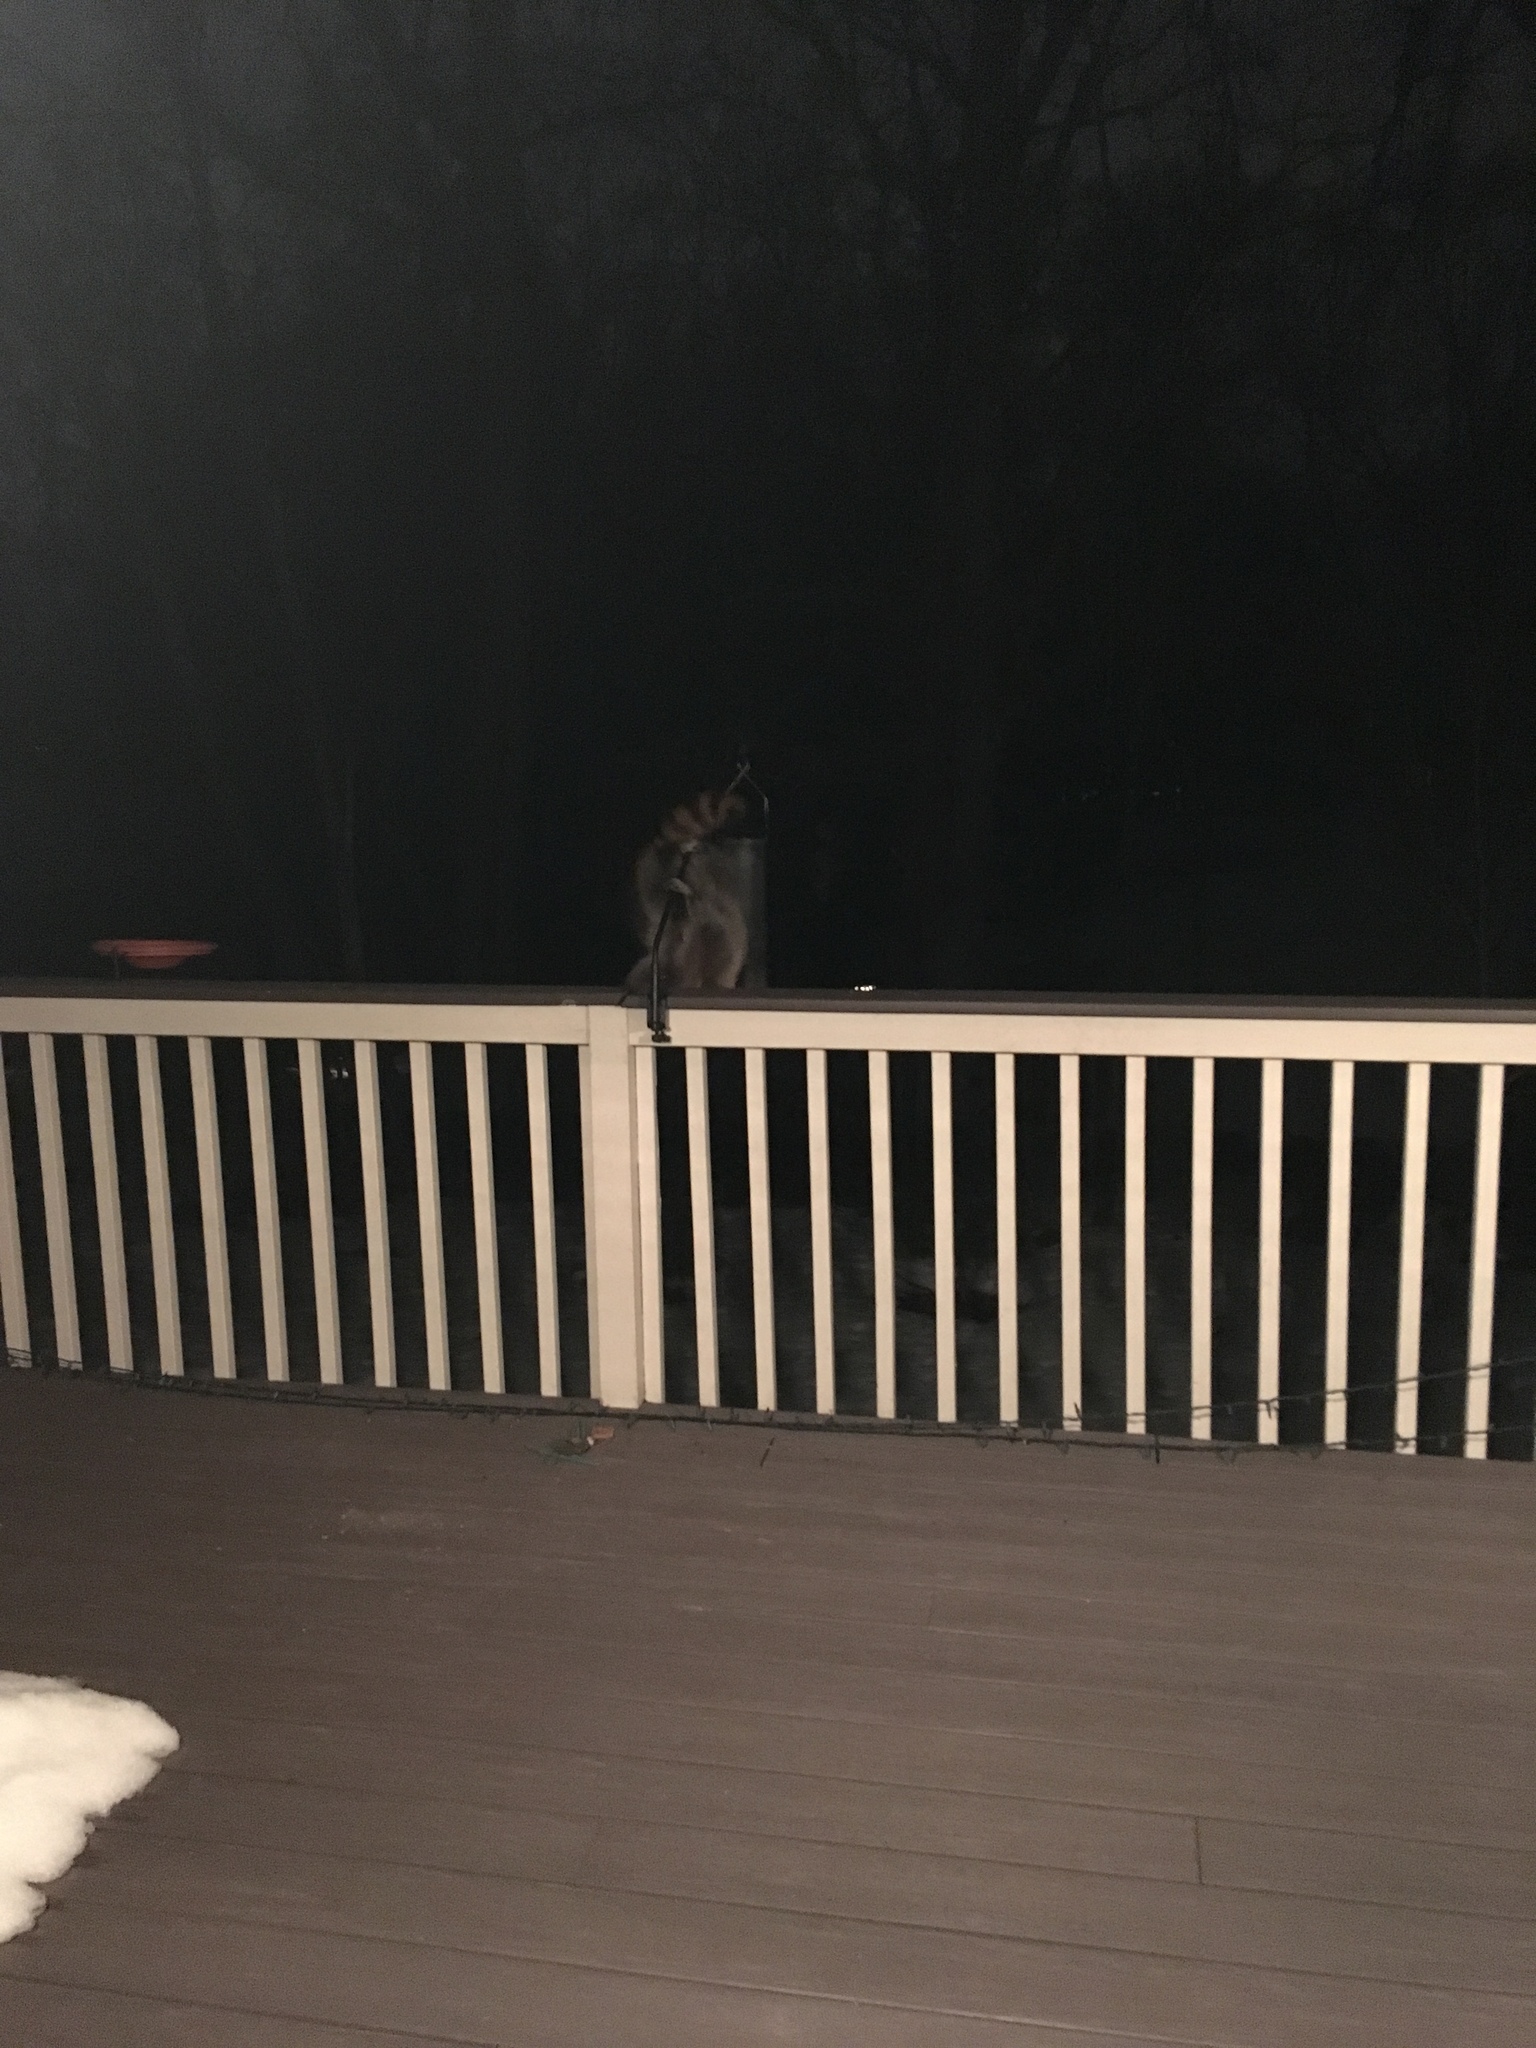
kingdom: Animalia
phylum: Chordata
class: Mammalia
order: Carnivora
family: Procyonidae
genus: Procyon
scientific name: Procyon lotor
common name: Raccoon
